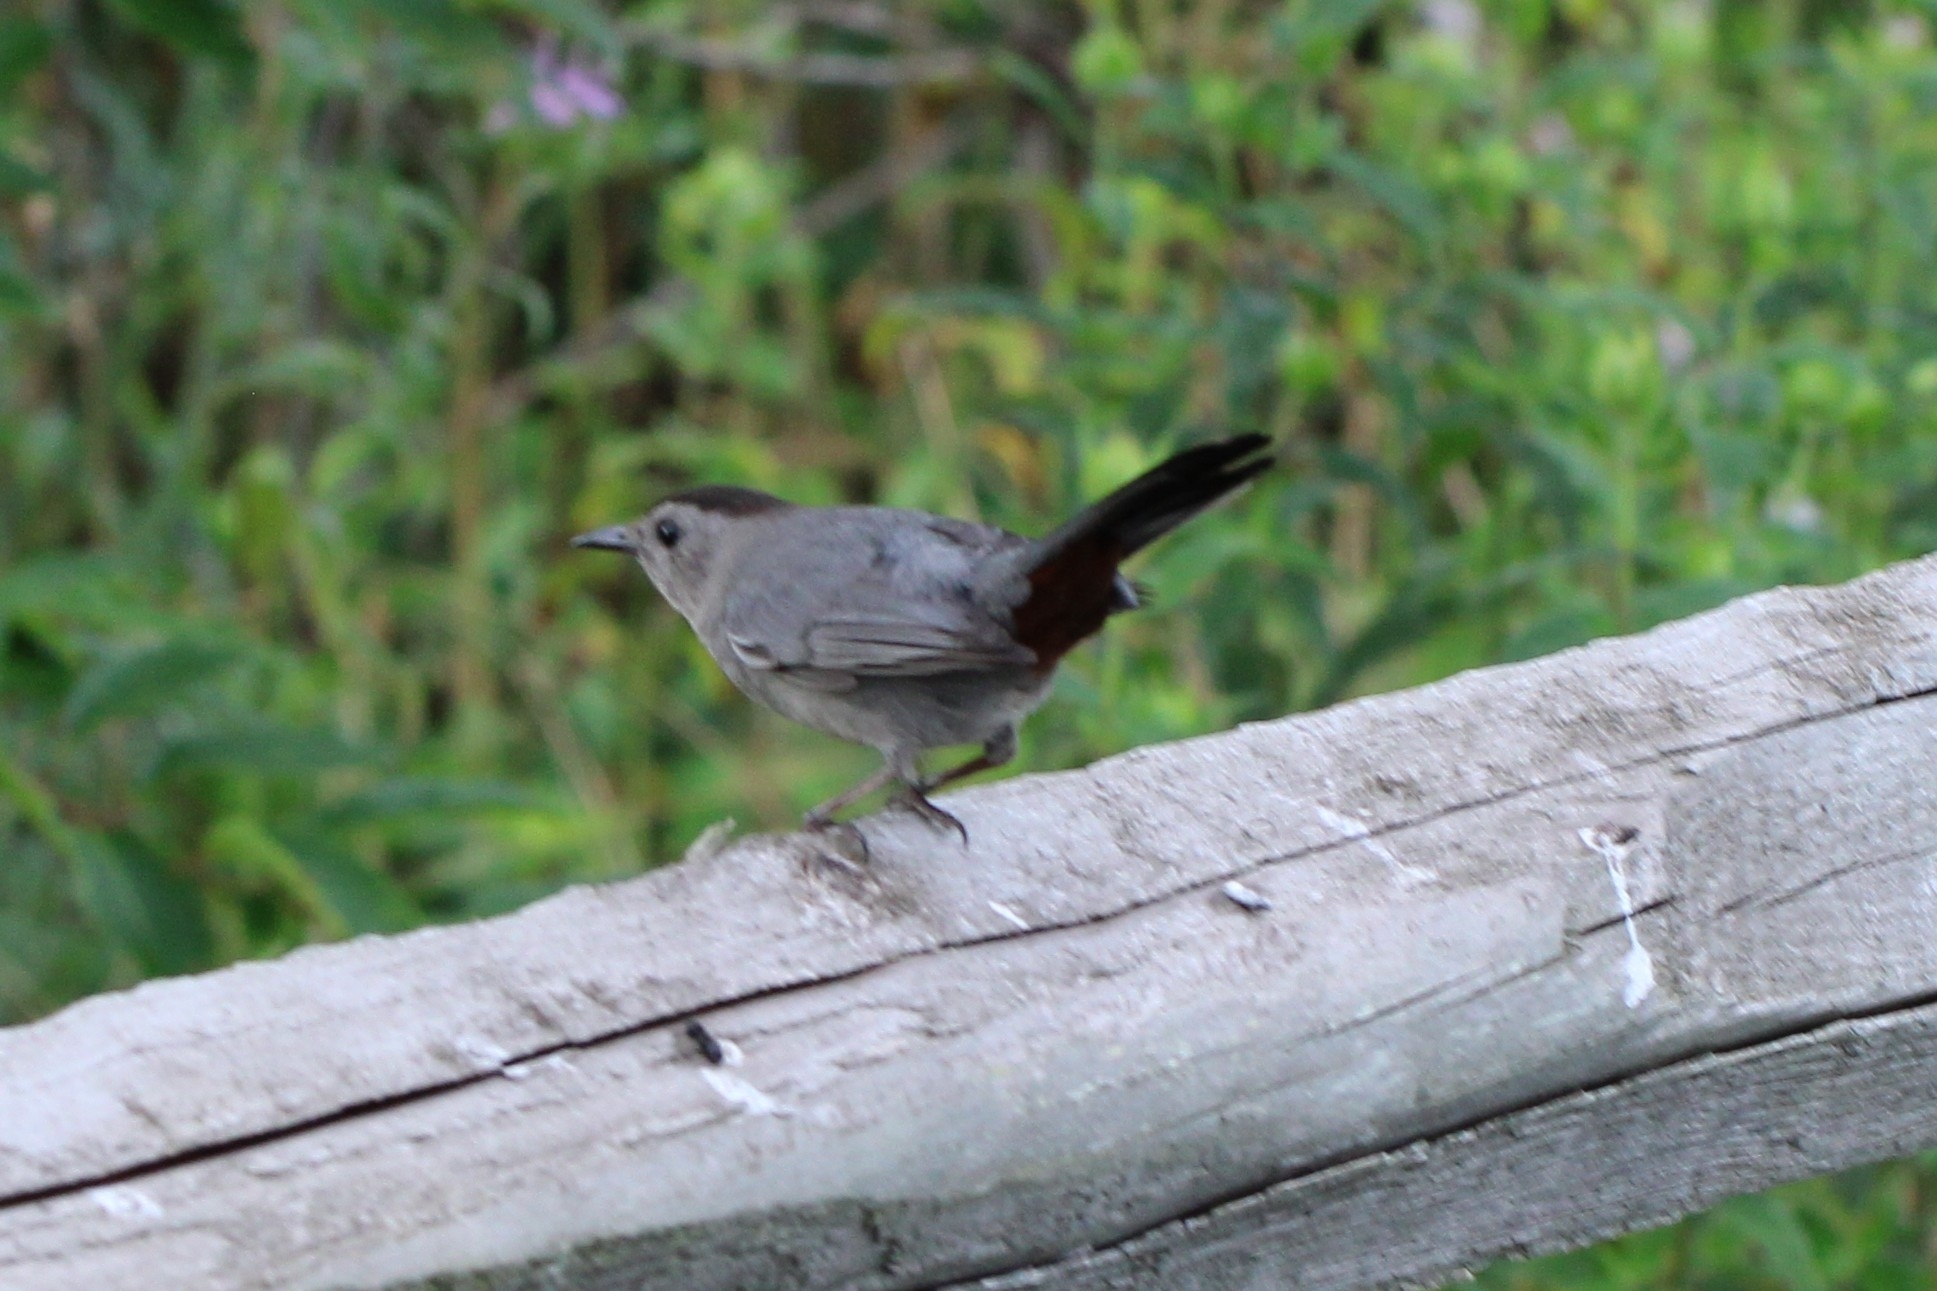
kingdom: Animalia
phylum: Chordata
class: Aves
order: Passeriformes
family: Mimidae
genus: Dumetella
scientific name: Dumetella carolinensis
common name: Gray catbird
